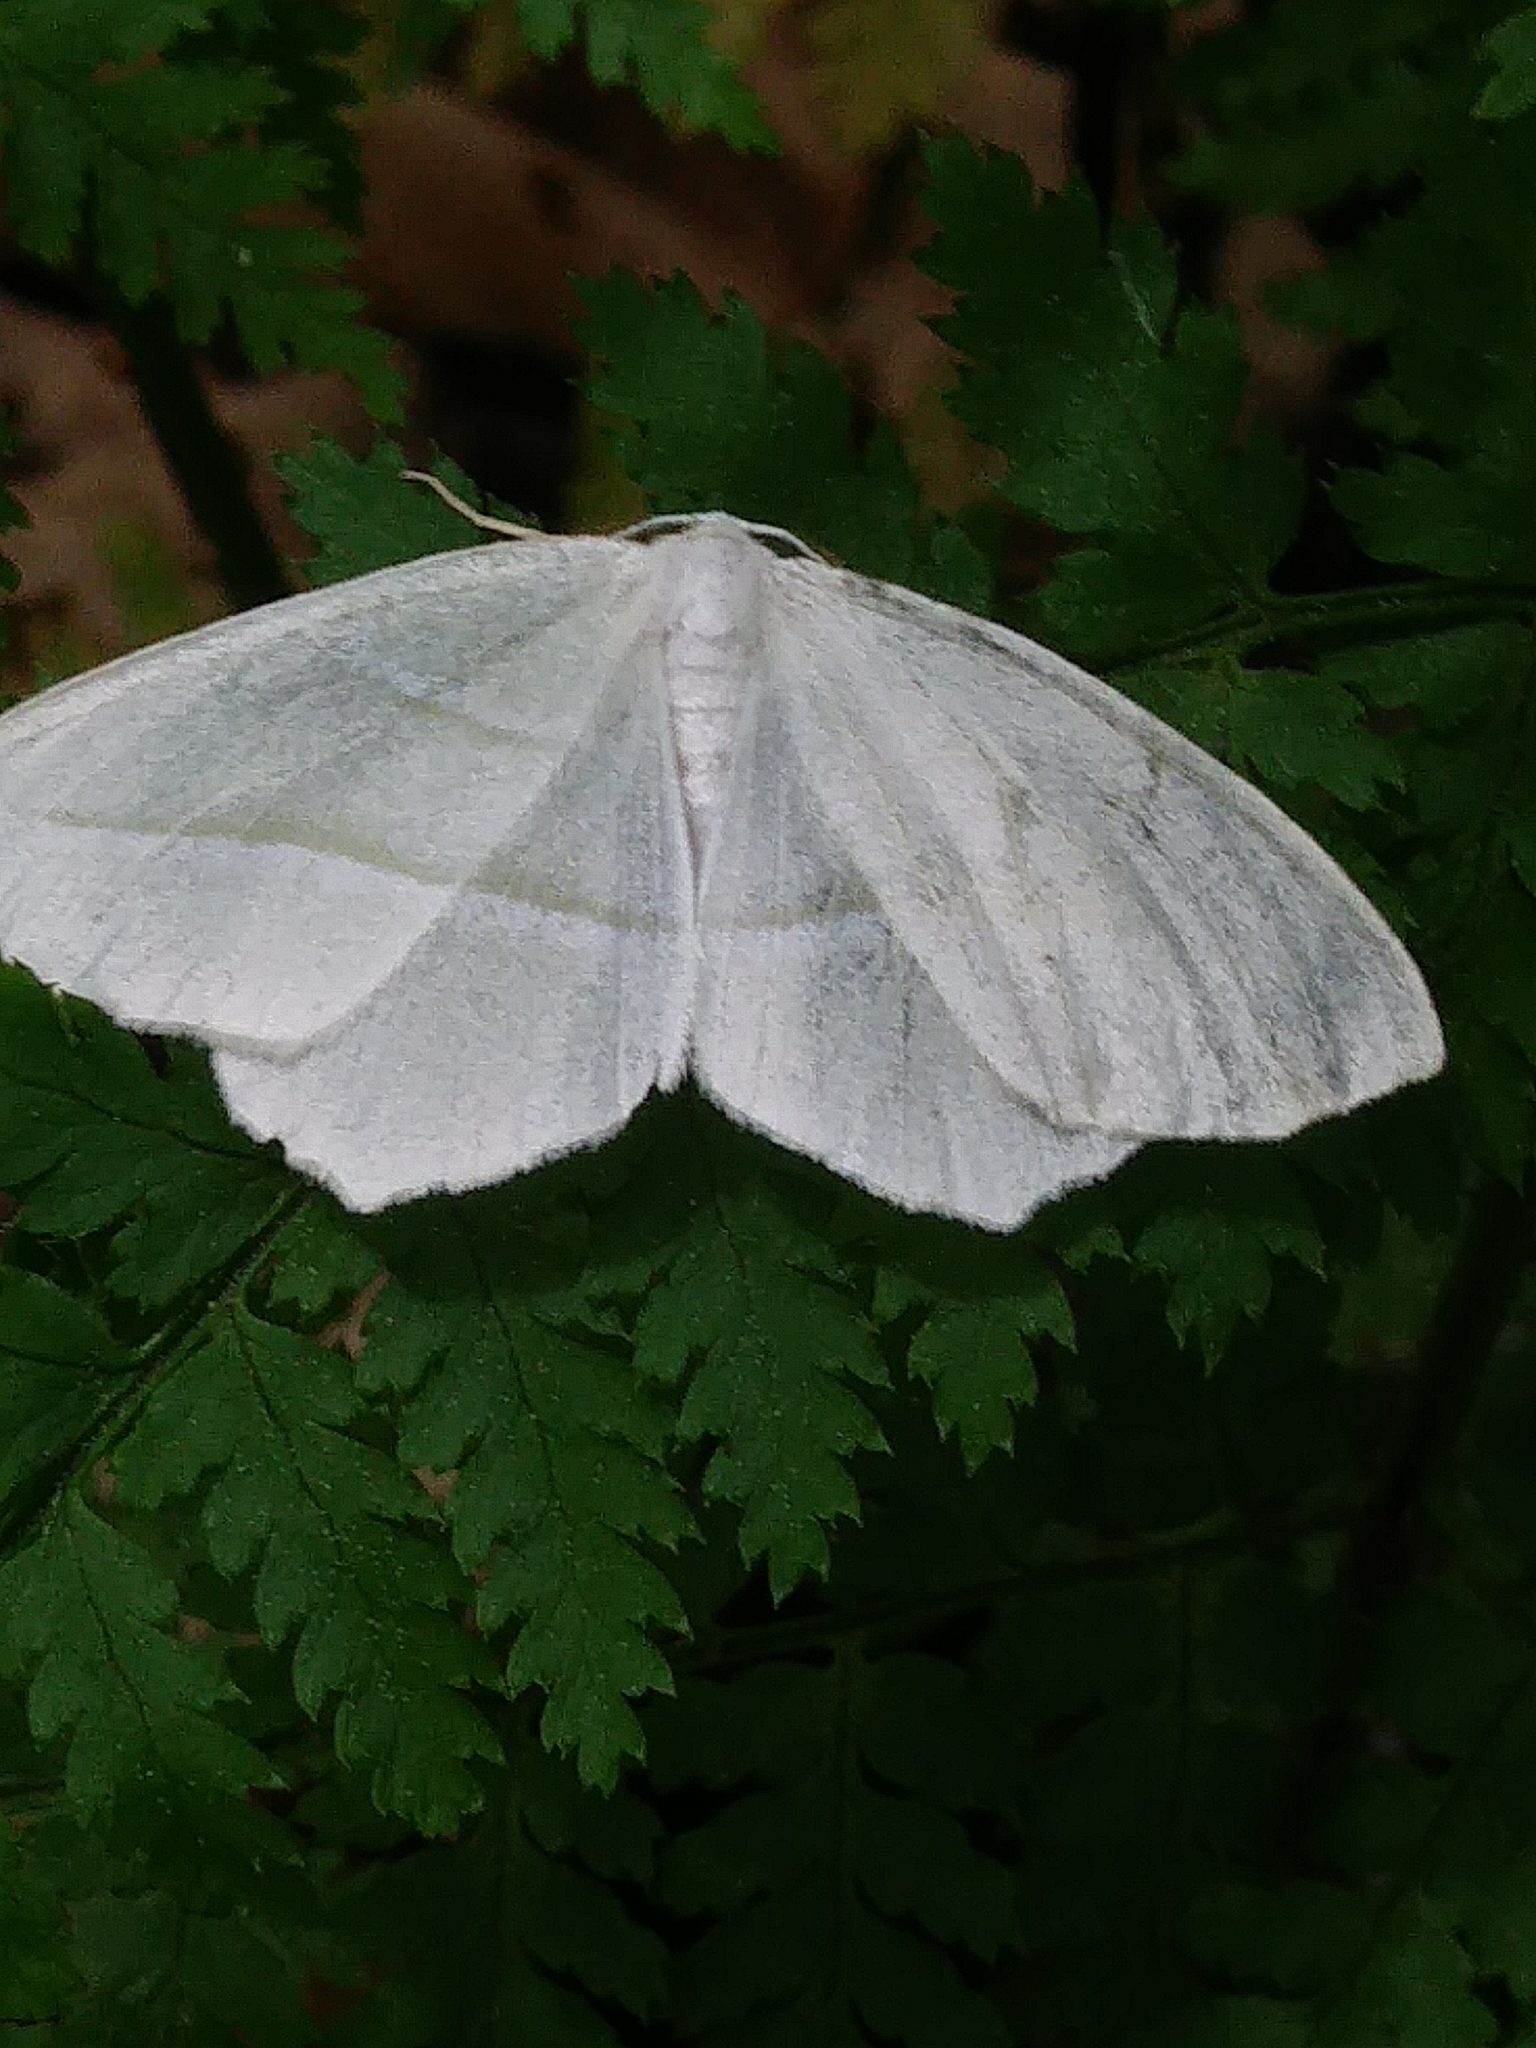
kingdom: Animalia
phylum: Arthropoda
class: Insecta
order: Lepidoptera
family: Geometridae
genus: Campaea
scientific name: Campaea perlata
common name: Fringed looper
